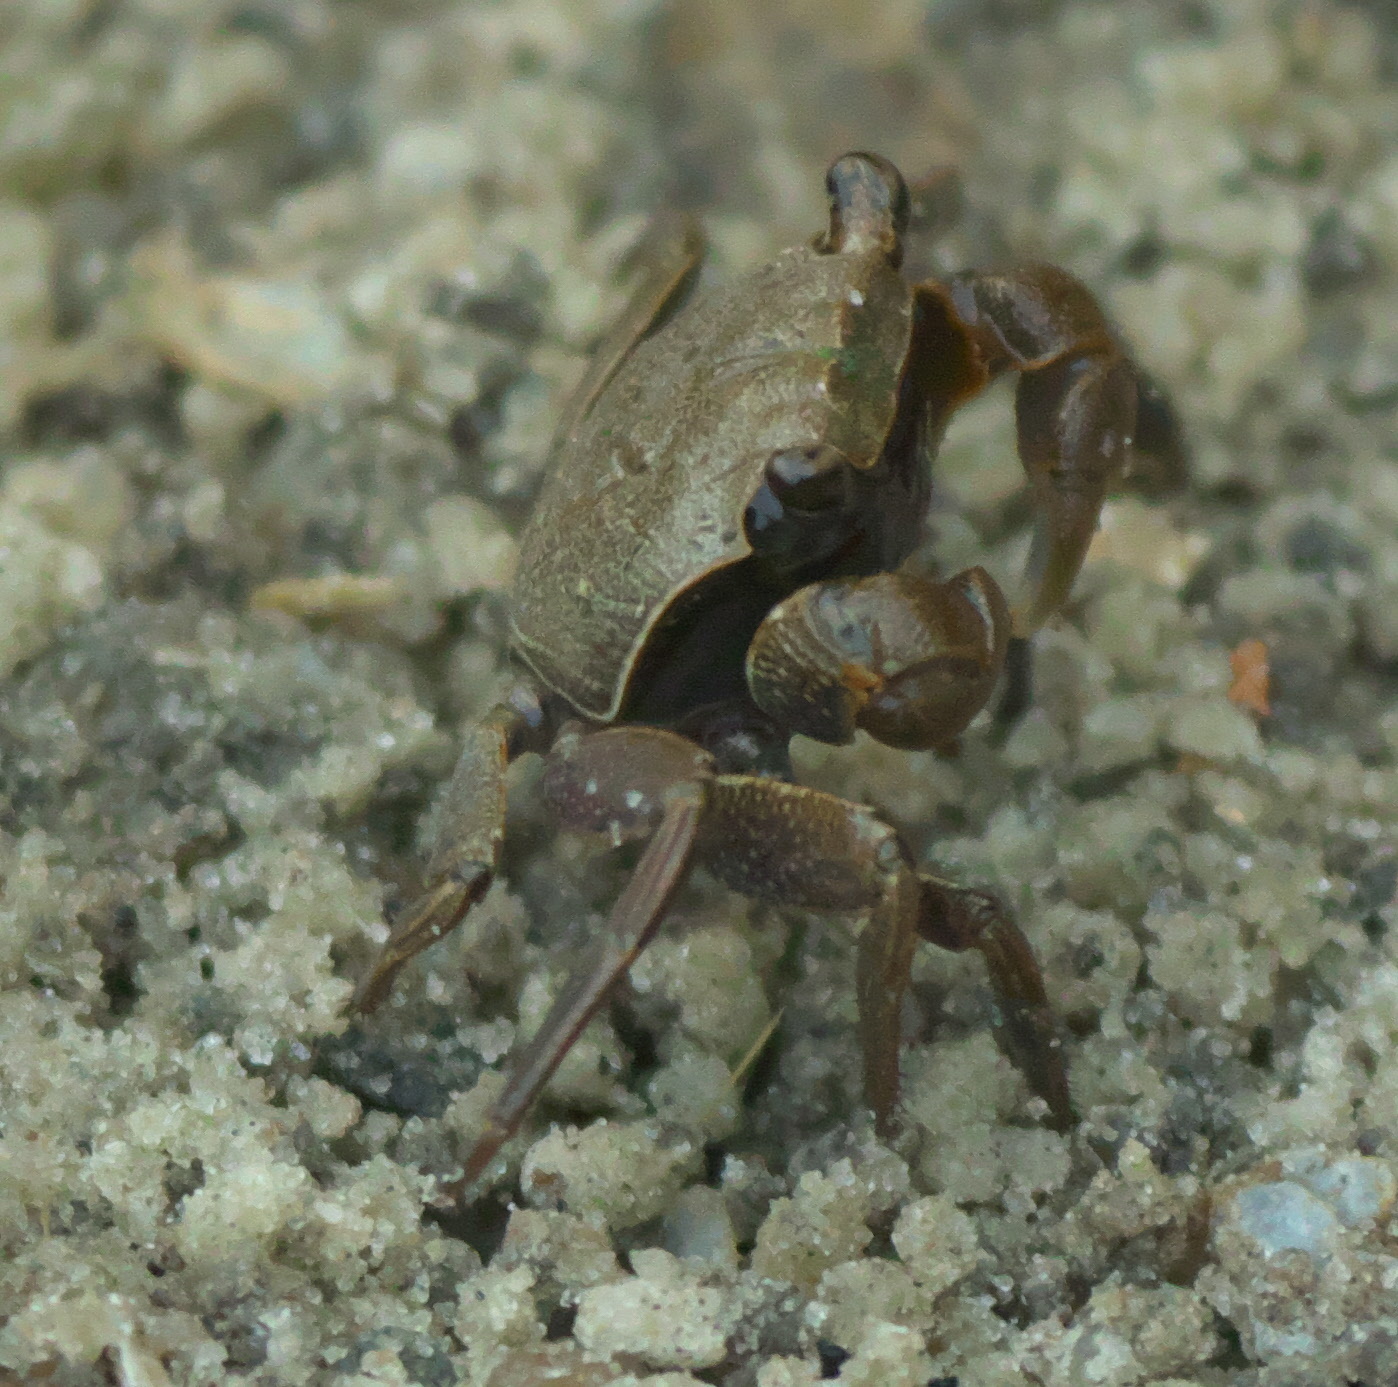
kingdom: Animalia
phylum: Arthropoda
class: Malacostraca
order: Decapoda
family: Sesarmidae
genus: Armases
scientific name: Armases cinereum
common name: Squareback marsh crab
